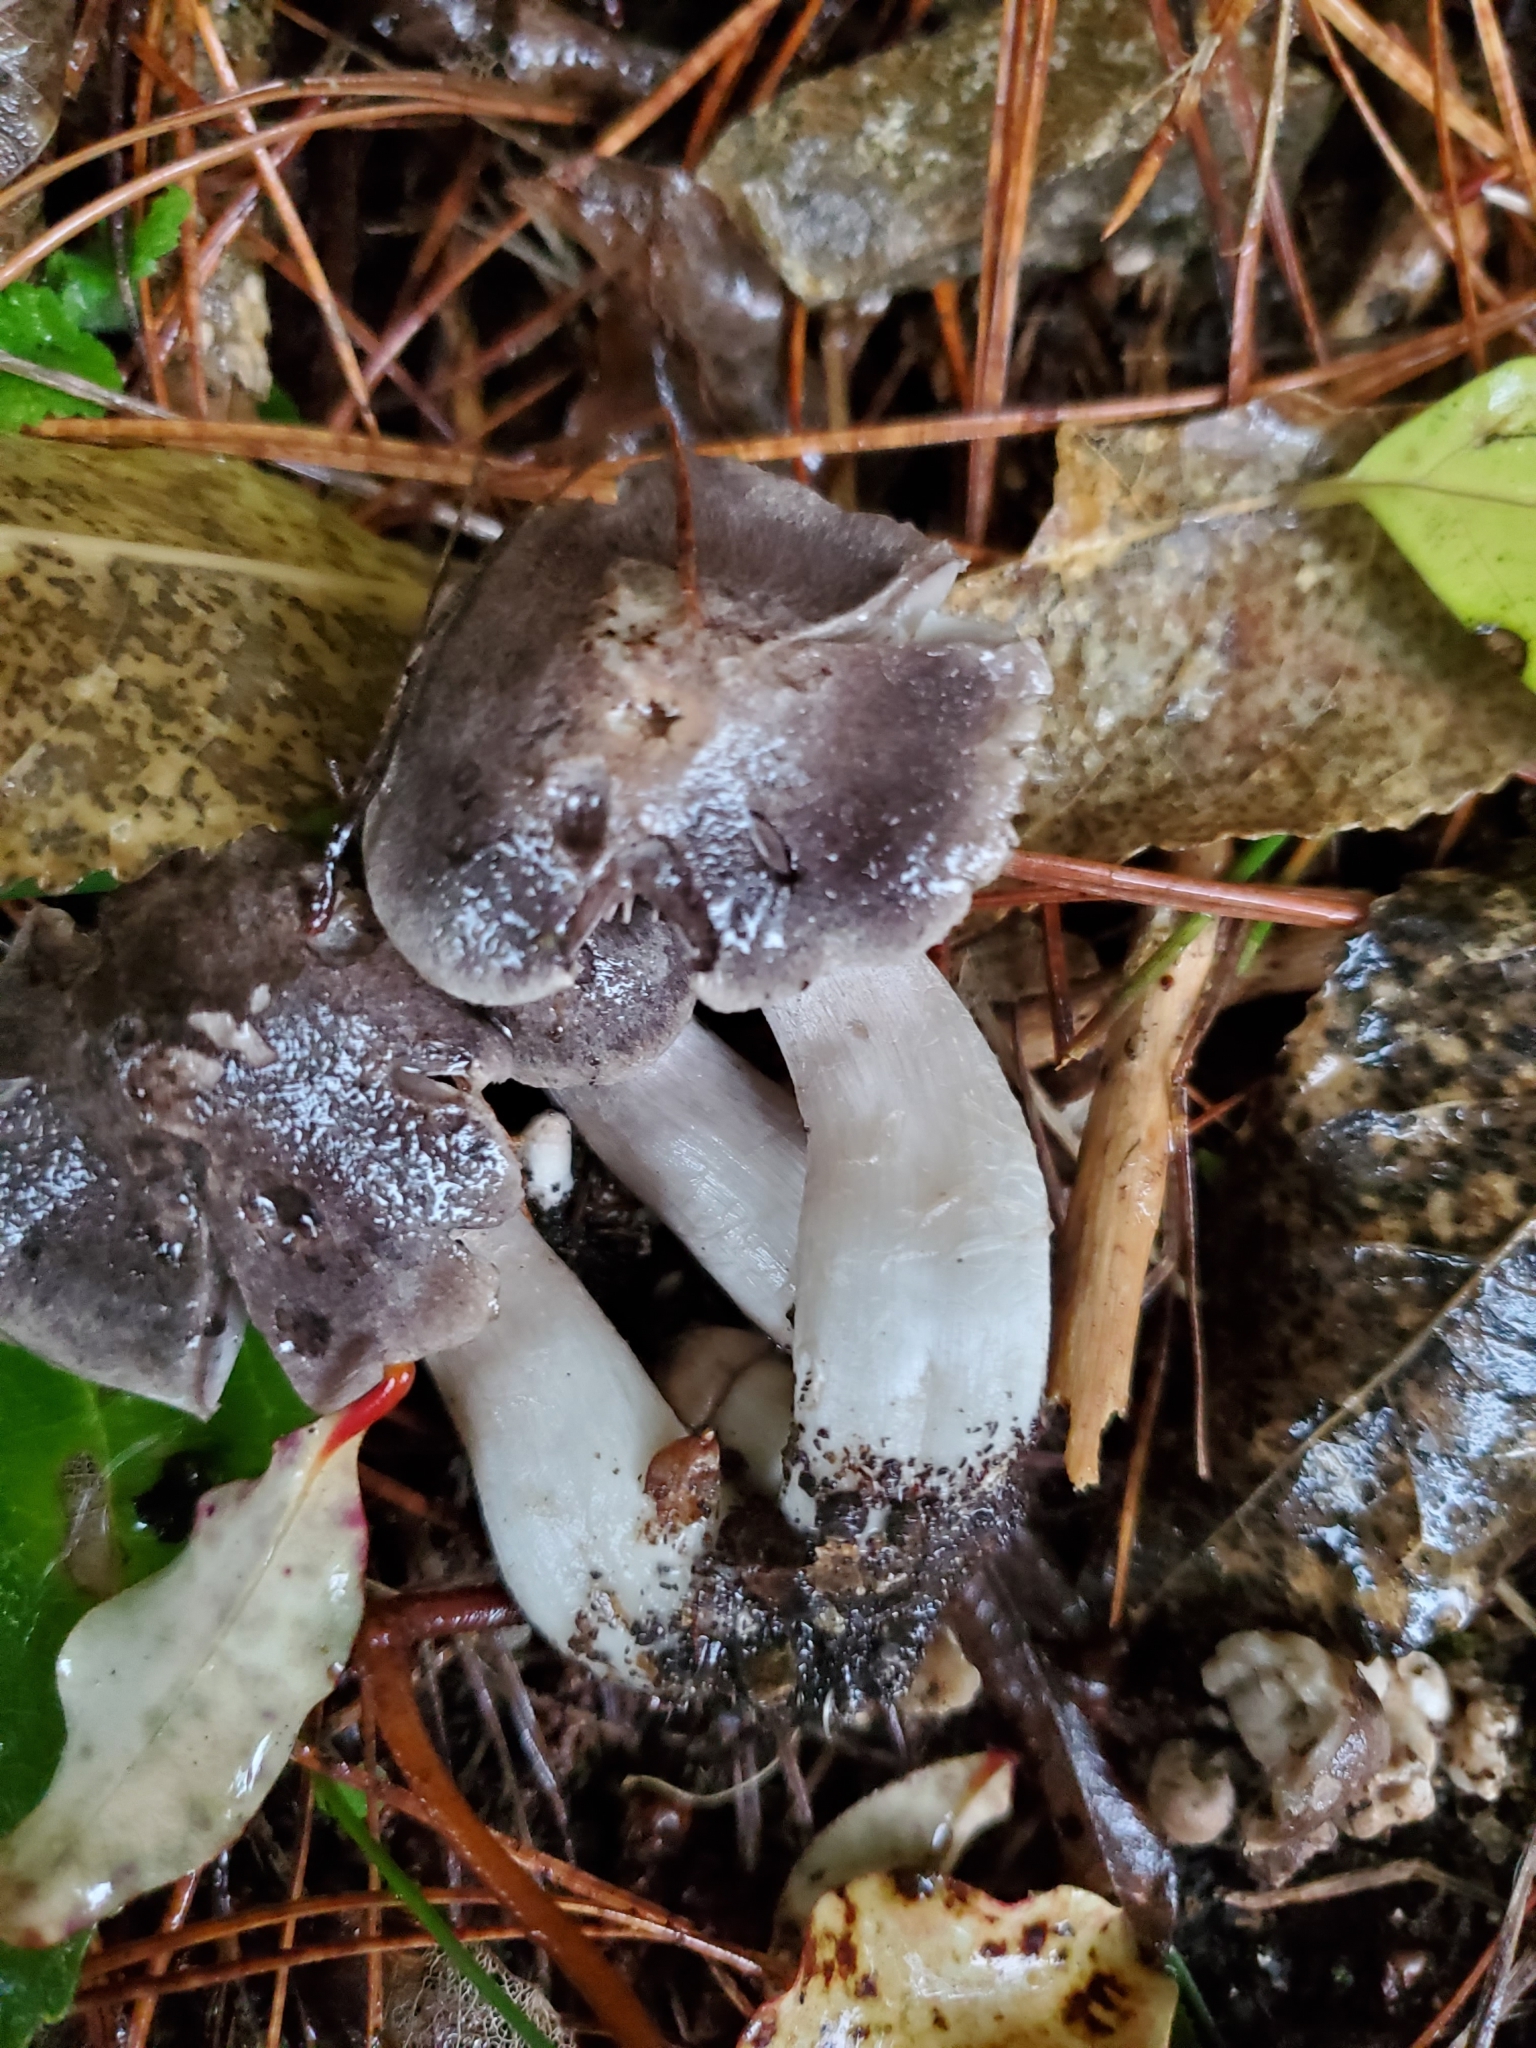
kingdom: Fungi
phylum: Basidiomycota
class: Agaricomycetes
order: Agaricales
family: Tricholomataceae
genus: Tricholoma
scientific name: Tricholoma terreum
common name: Grey knight
